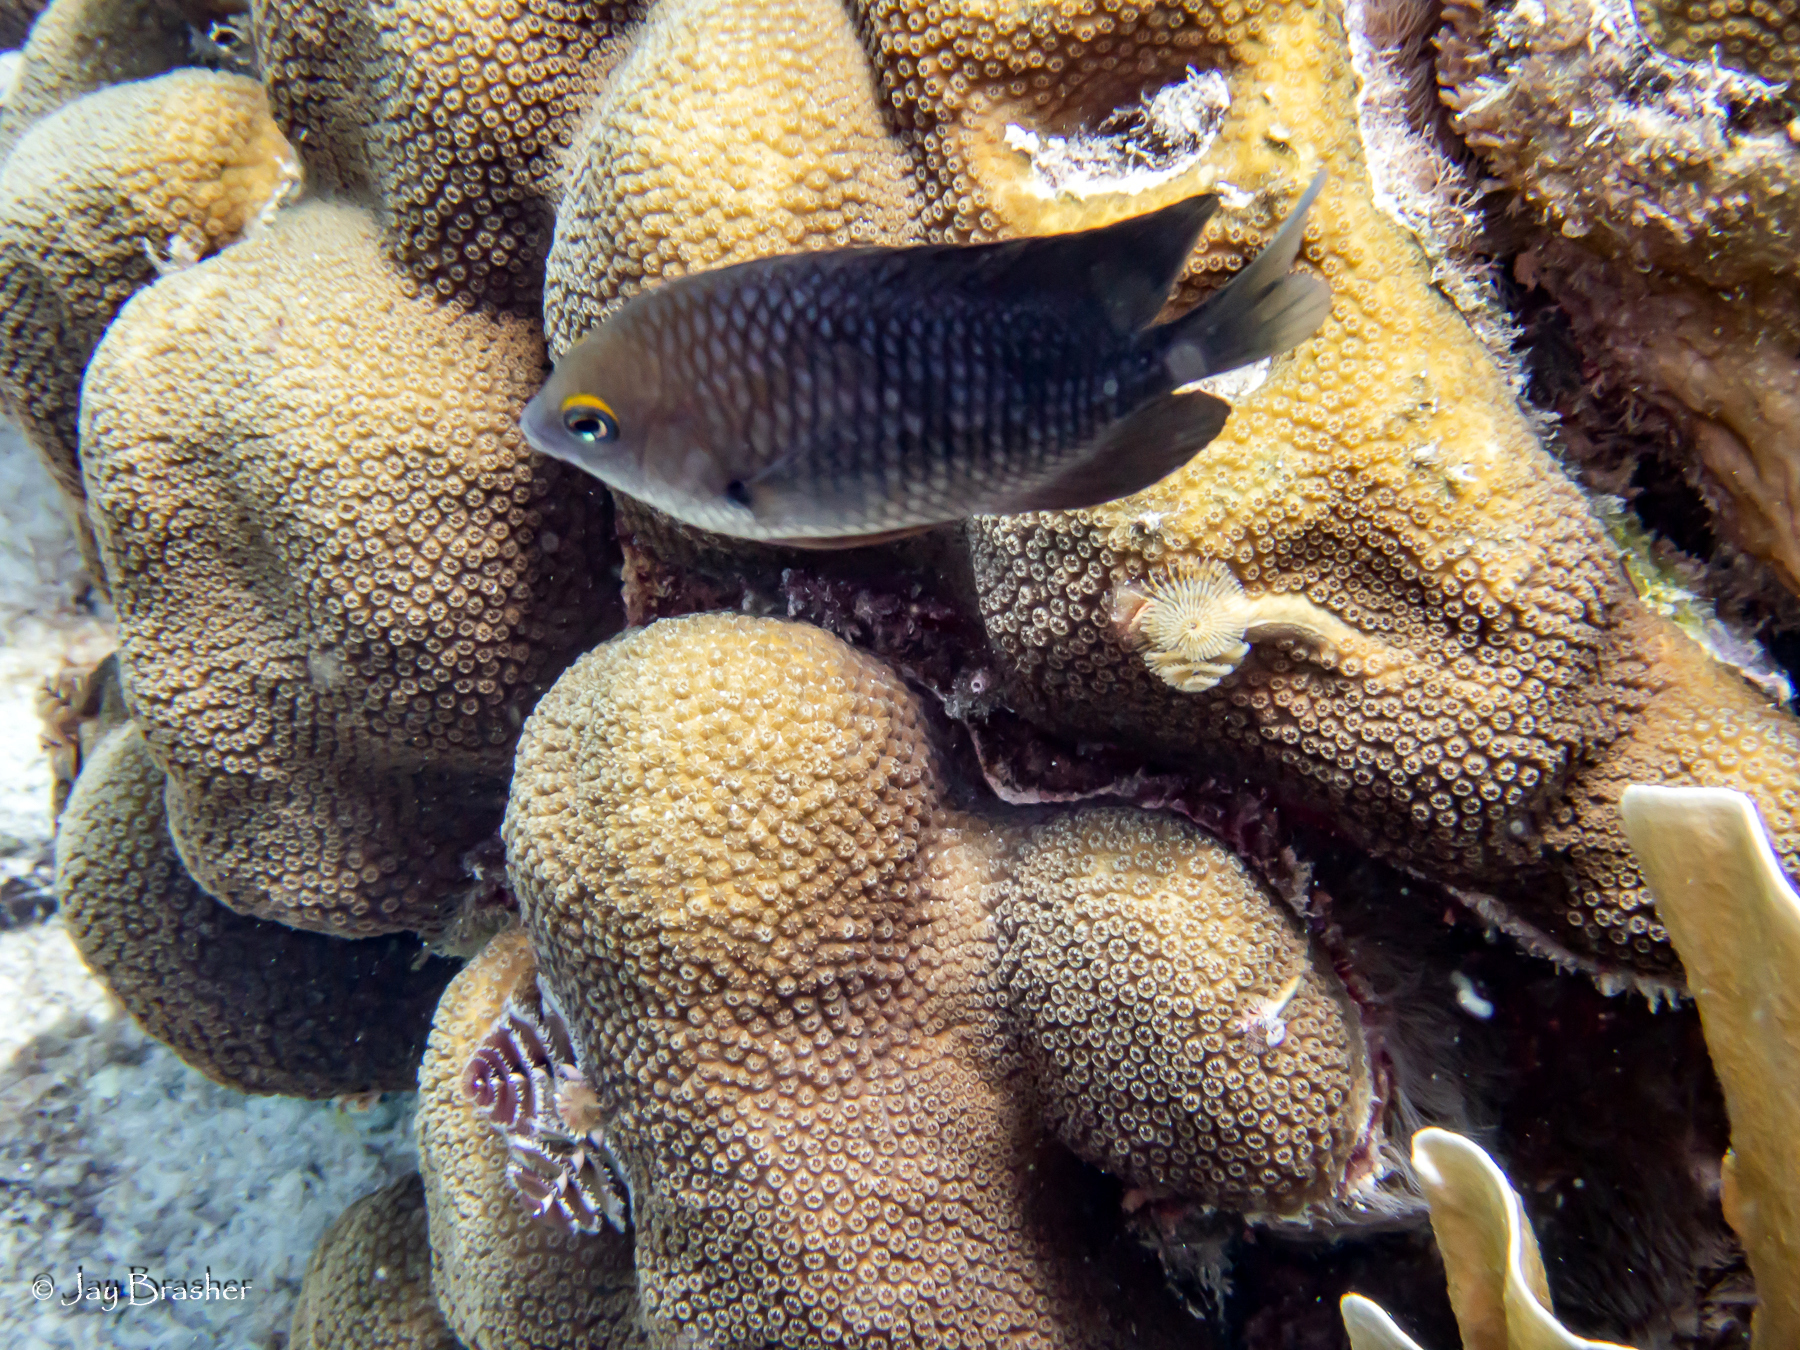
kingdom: Animalia
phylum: Chordata
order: Perciformes
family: Pomacentridae
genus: Stegastes
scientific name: Stegastes planifrons
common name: Threespot damselfish
